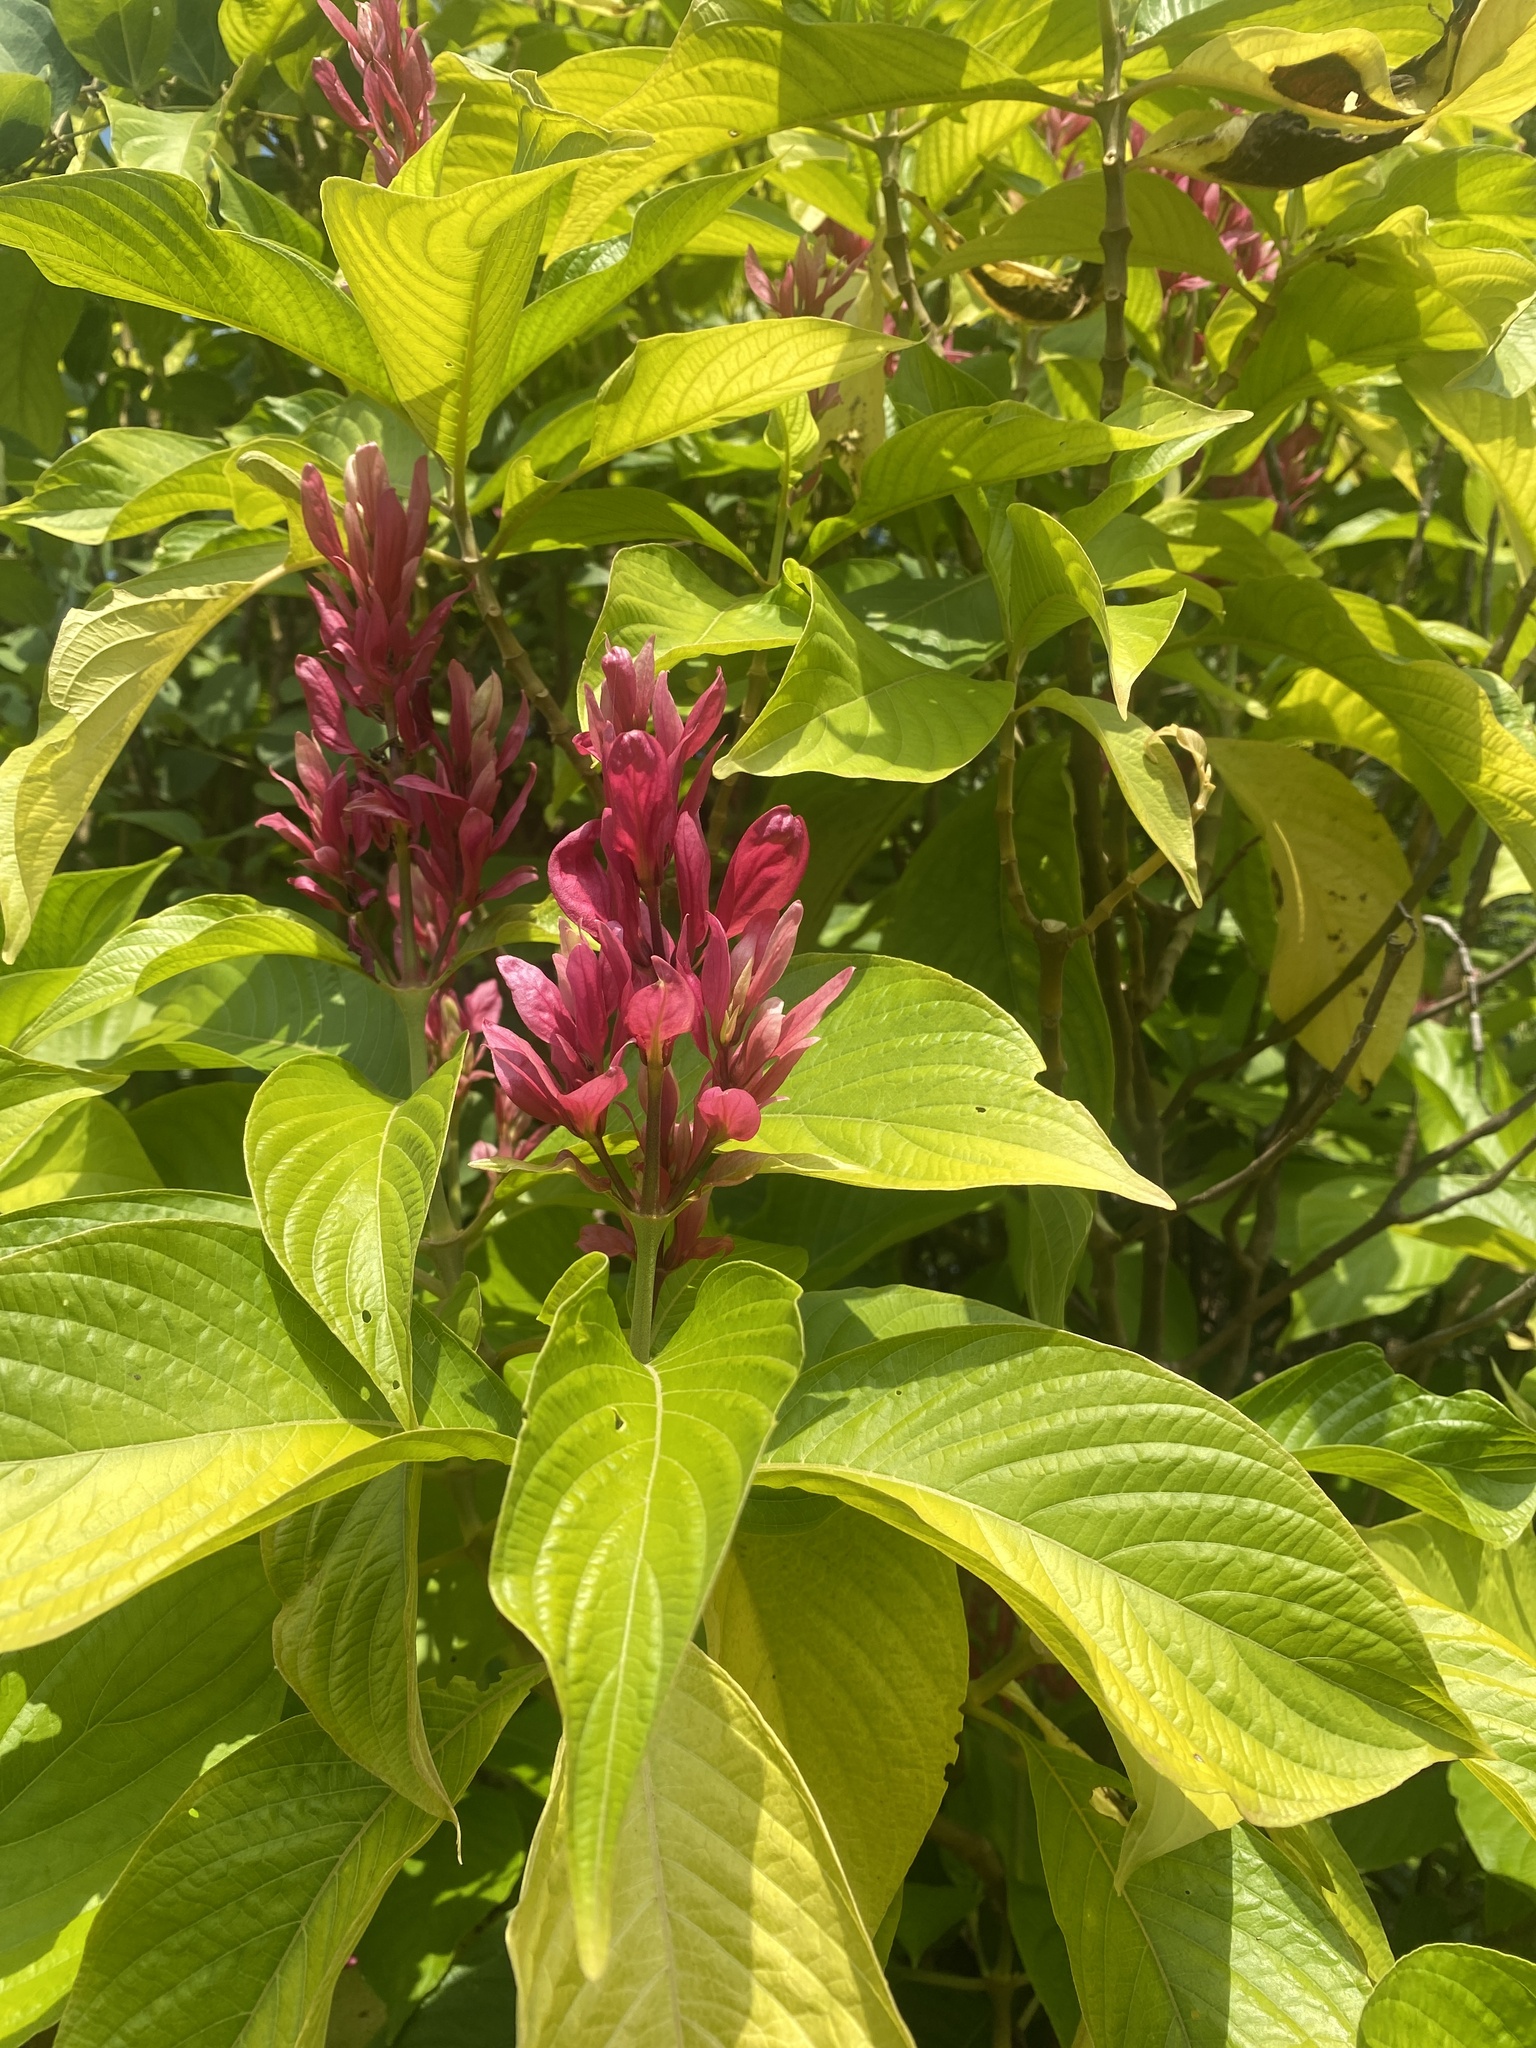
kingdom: Plantae
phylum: Tracheophyta
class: Magnoliopsida
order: Lamiales
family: Acanthaceae
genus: Megaskepasma
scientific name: Megaskepasma erythrochlamys
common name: Brazilian red-cloak
